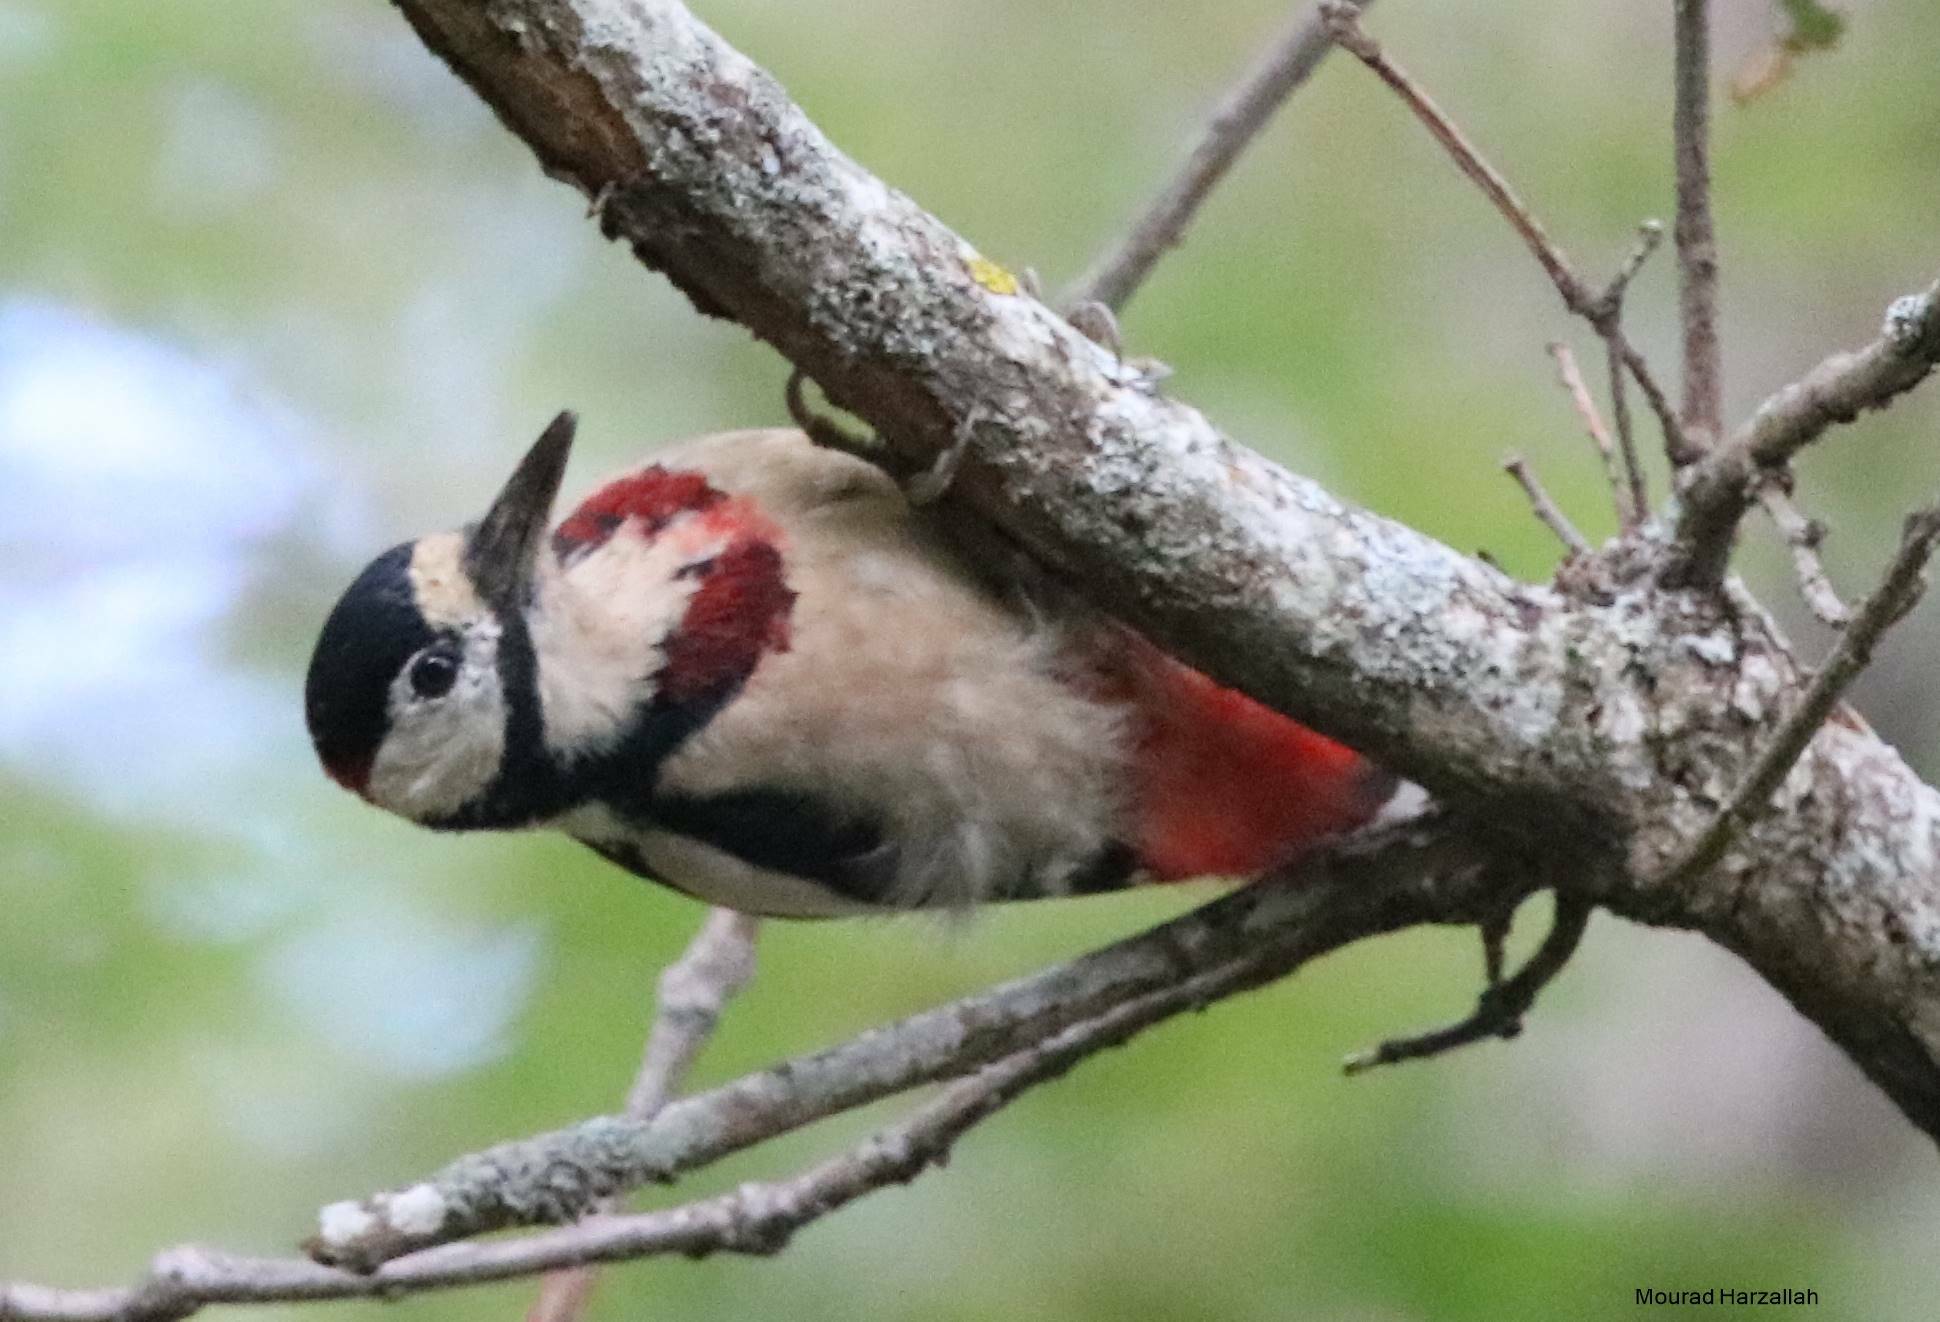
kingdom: Animalia
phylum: Chordata
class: Aves
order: Piciformes
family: Picidae
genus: Dendrocopos
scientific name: Dendrocopos major
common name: Great spotted woodpecker
